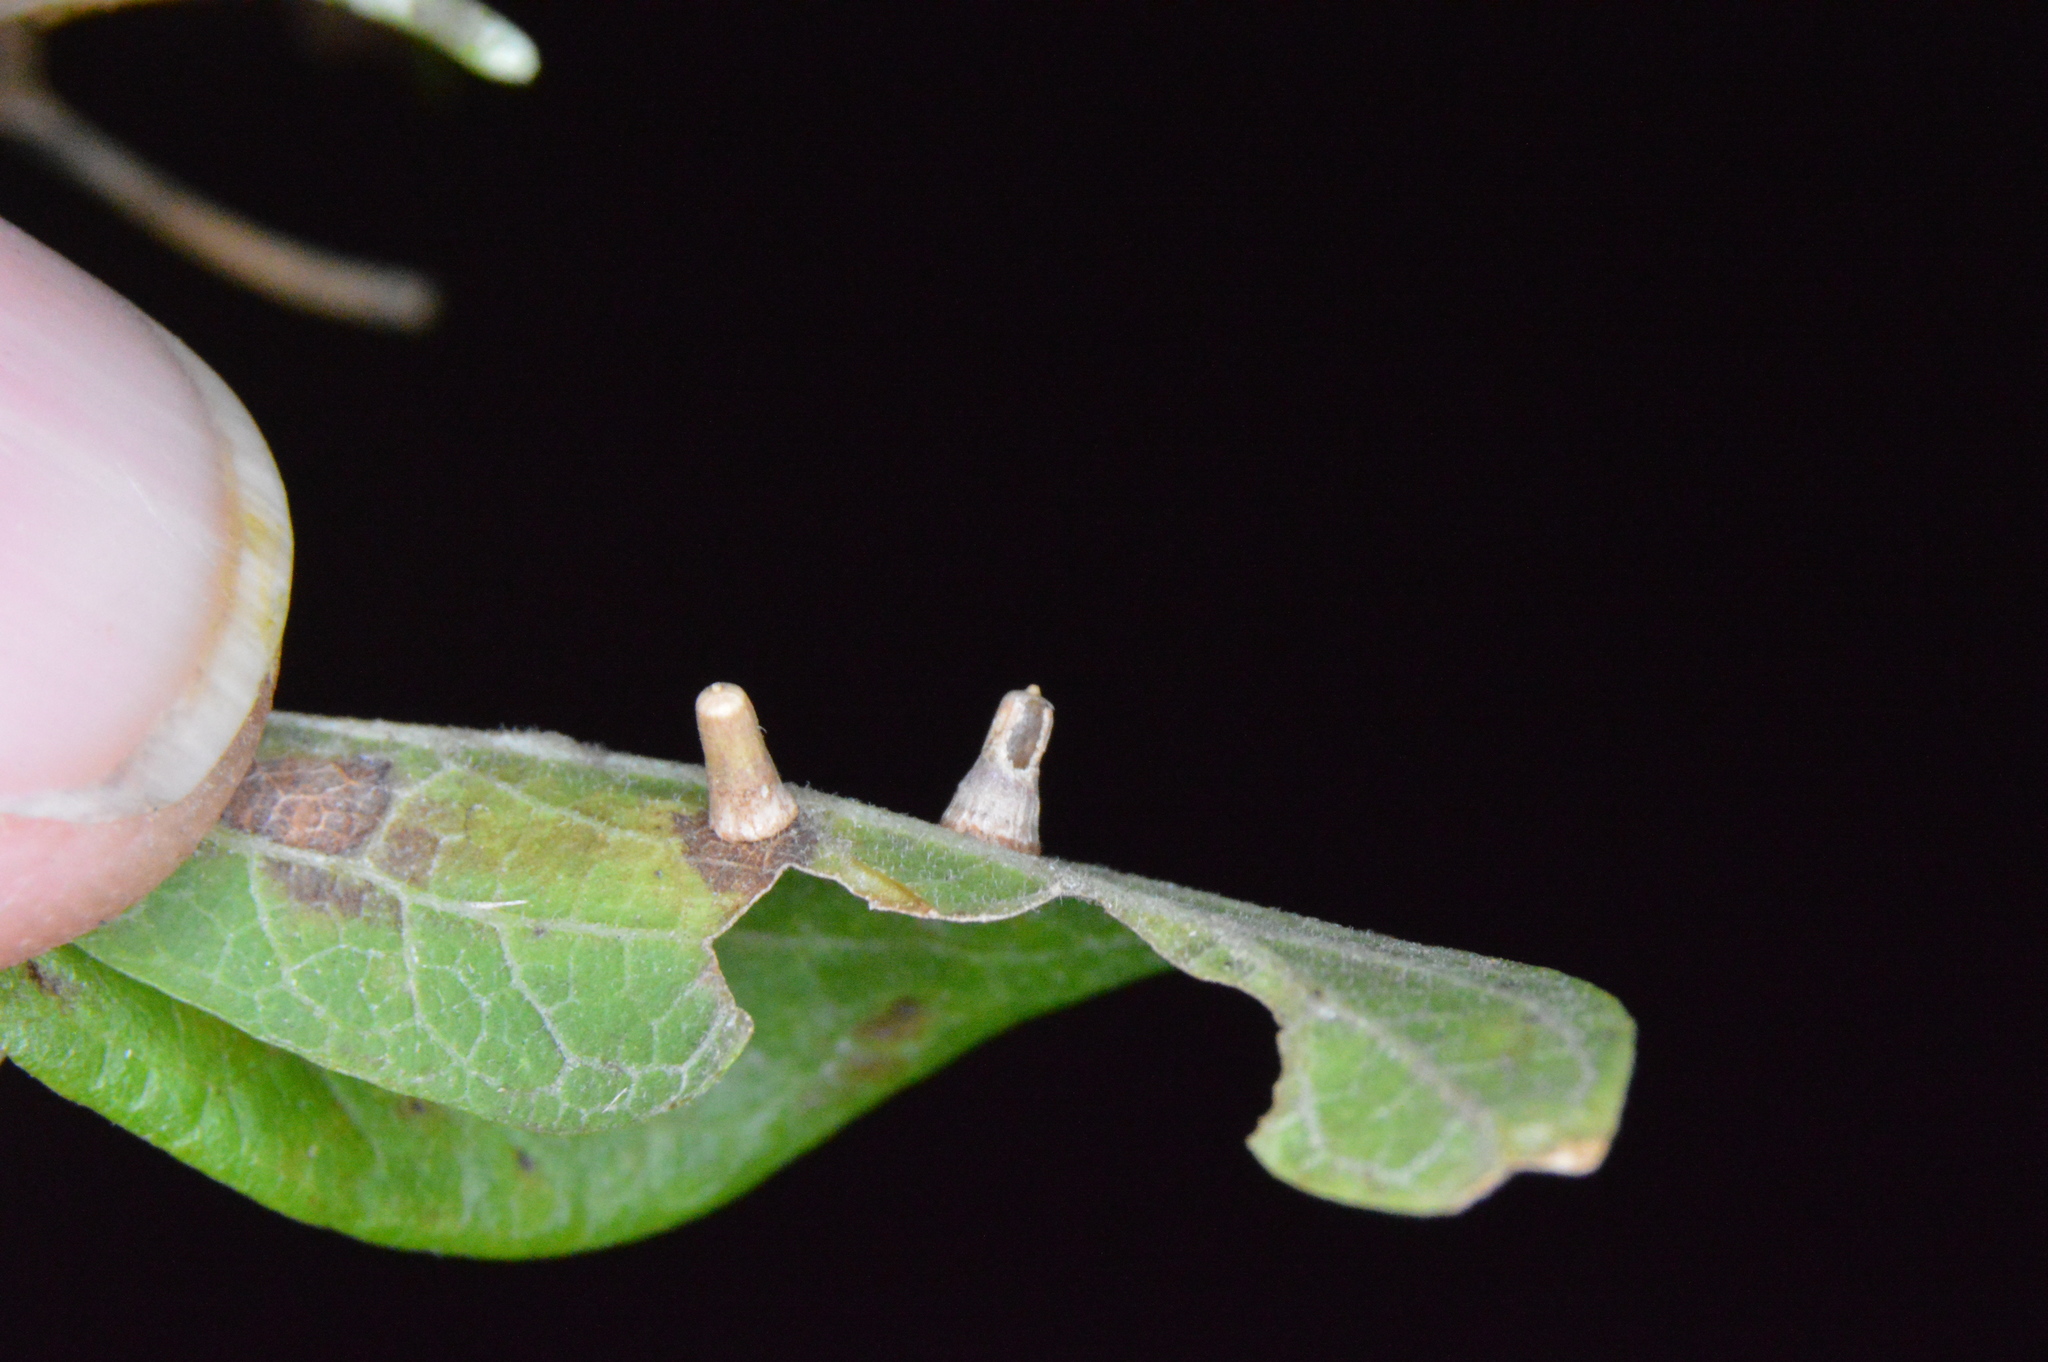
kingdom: Animalia
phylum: Arthropoda
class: Insecta
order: Diptera
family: Cecidomyiidae
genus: Celticecis
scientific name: Celticecis aciculata
